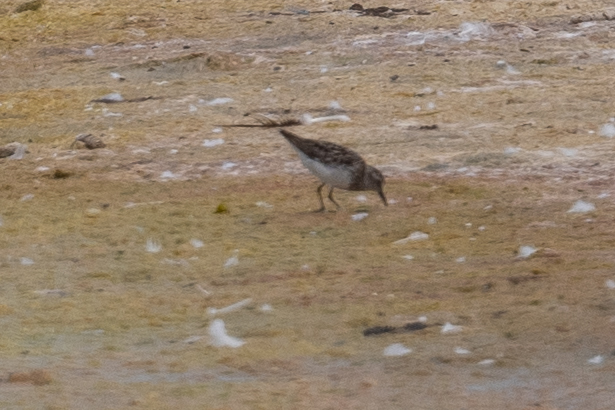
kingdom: Animalia
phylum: Chordata
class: Aves
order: Charadriiformes
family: Scolopacidae
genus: Calidris
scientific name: Calidris minutilla
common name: Least sandpiper
